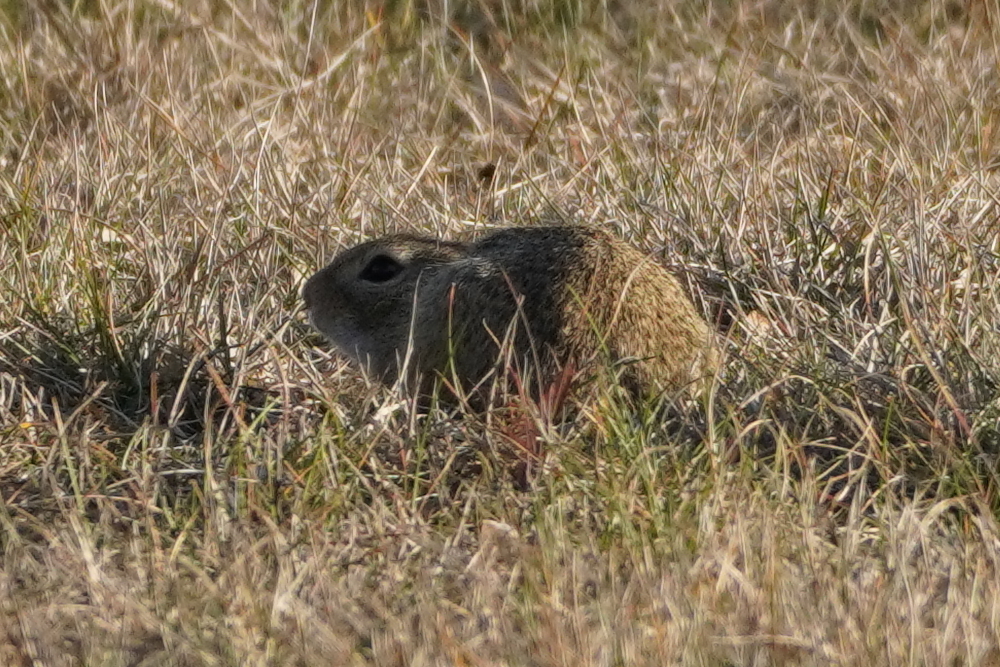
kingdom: Animalia
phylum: Chordata
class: Mammalia
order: Rodentia
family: Sciuridae
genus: Spermophilus
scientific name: Spermophilus citellus
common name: European ground squirrel
